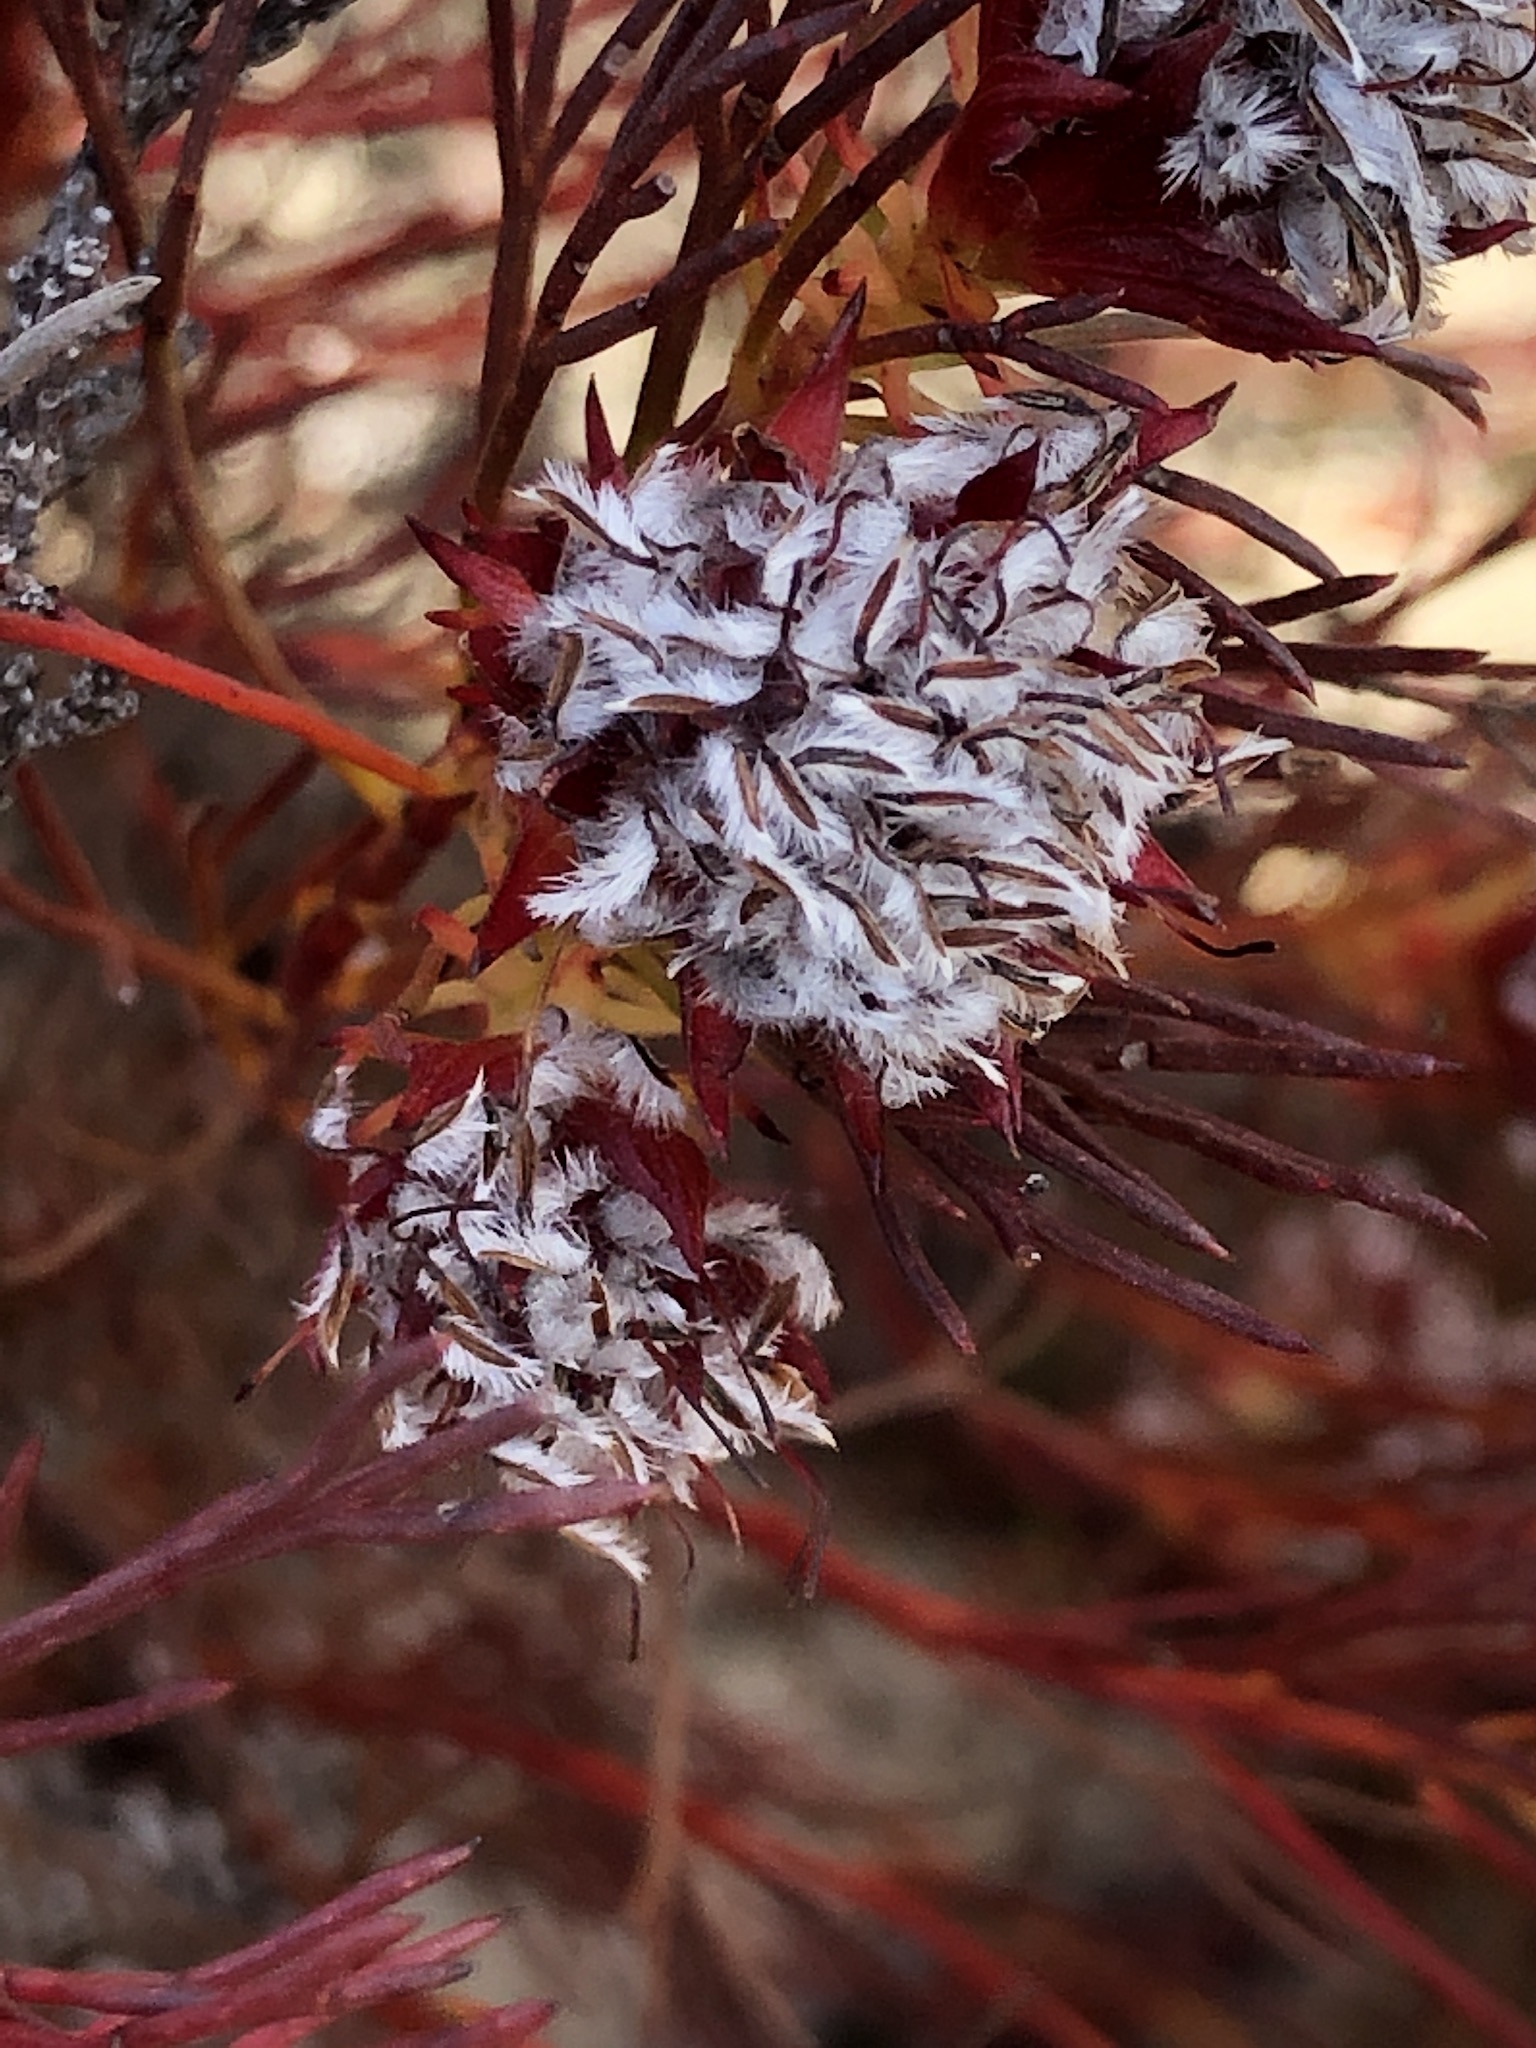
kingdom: Plantae
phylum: Tracheophyta
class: Magnoliopsida
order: Proteales
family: Proteaceae
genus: Serruria
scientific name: Serruria nervosa
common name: Fluted spiderhead
